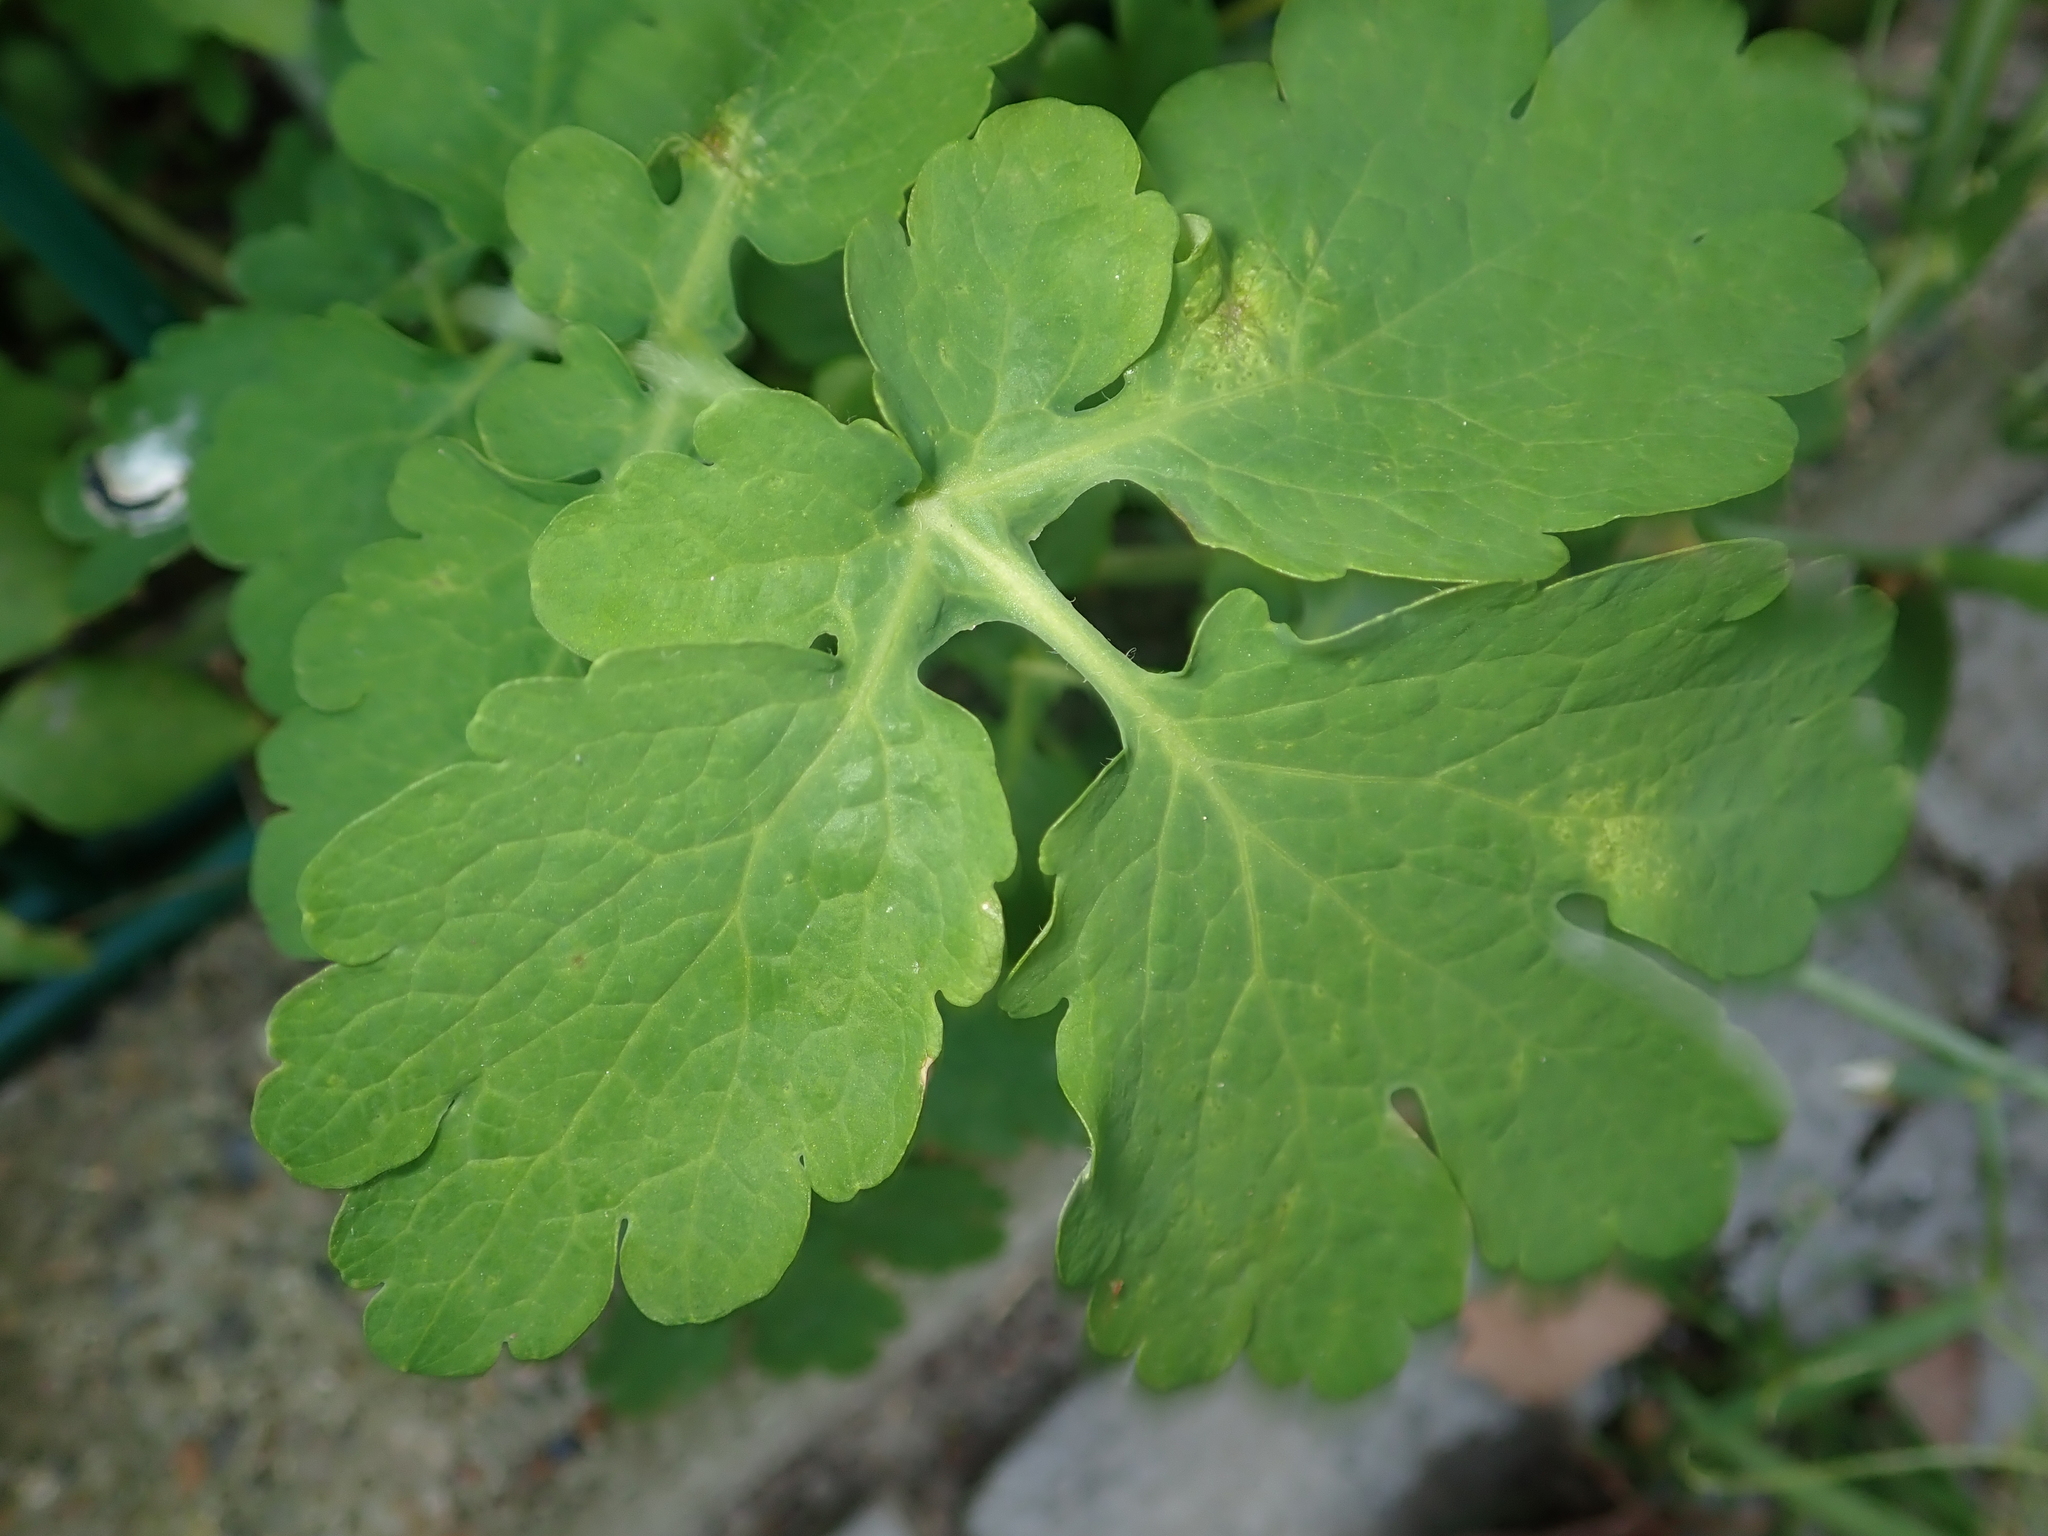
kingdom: Plantae
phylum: Tracheophyta
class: Magnoliopsida
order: Ranunculales
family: Papaveraceae
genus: Chelidonium
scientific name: Chelidonium majus
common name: Greater celandine
